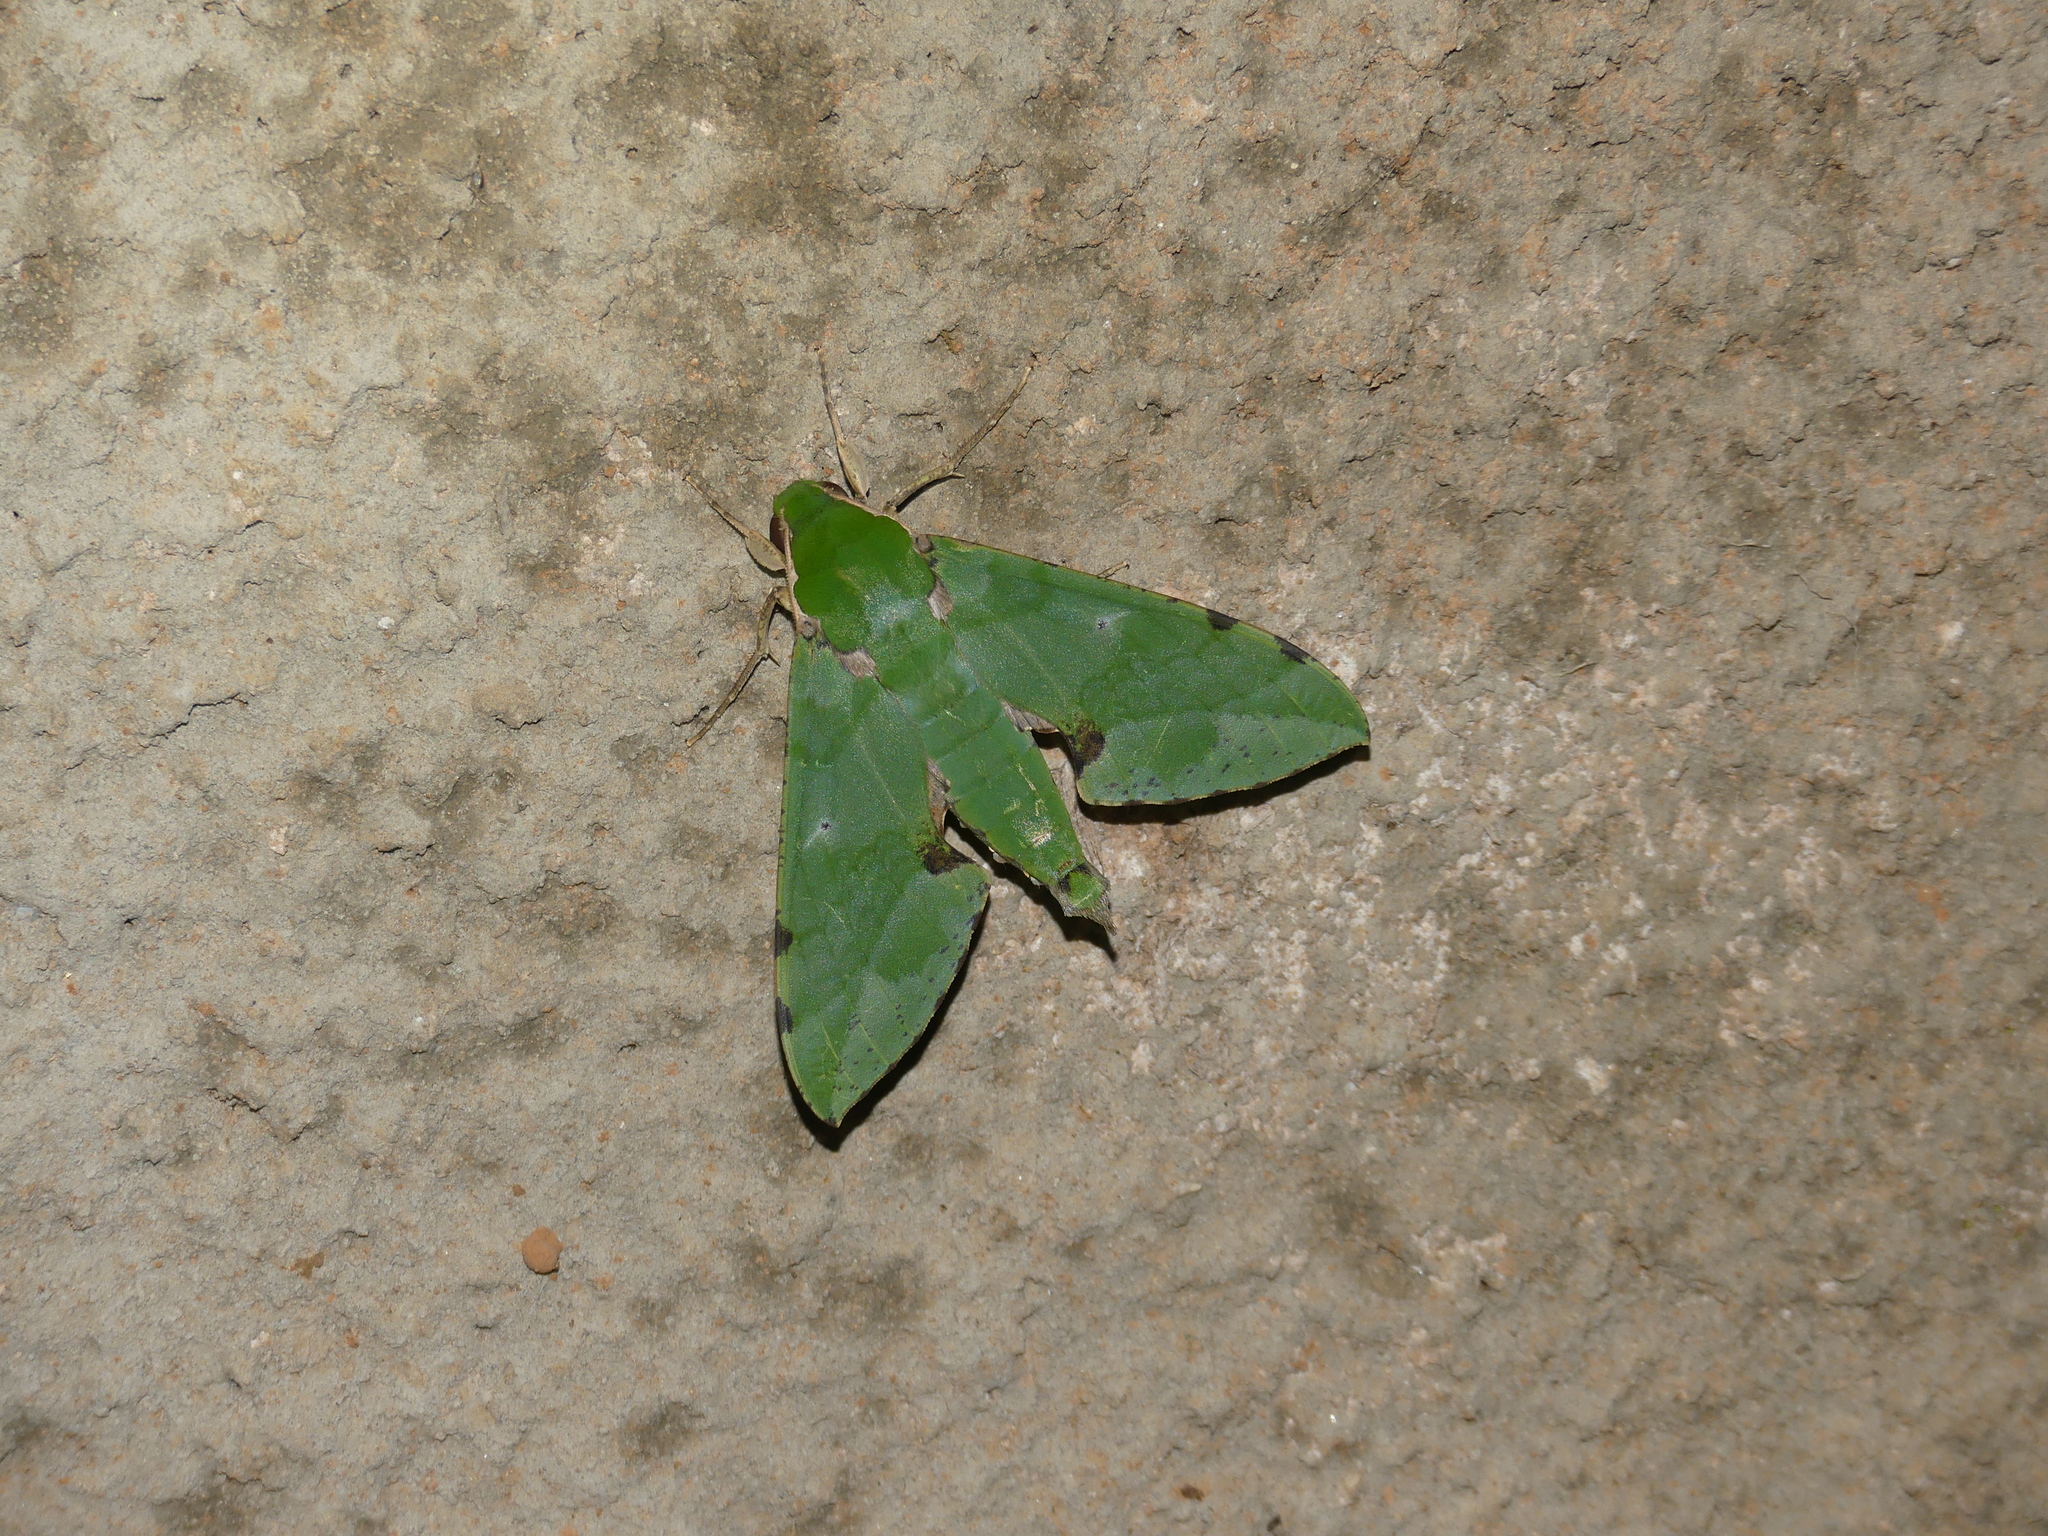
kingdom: Animalia
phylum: Arthropoda
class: Insecta
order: Lepidoptera
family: Sphingidae
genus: Euchloron
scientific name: Euchloron megaera
